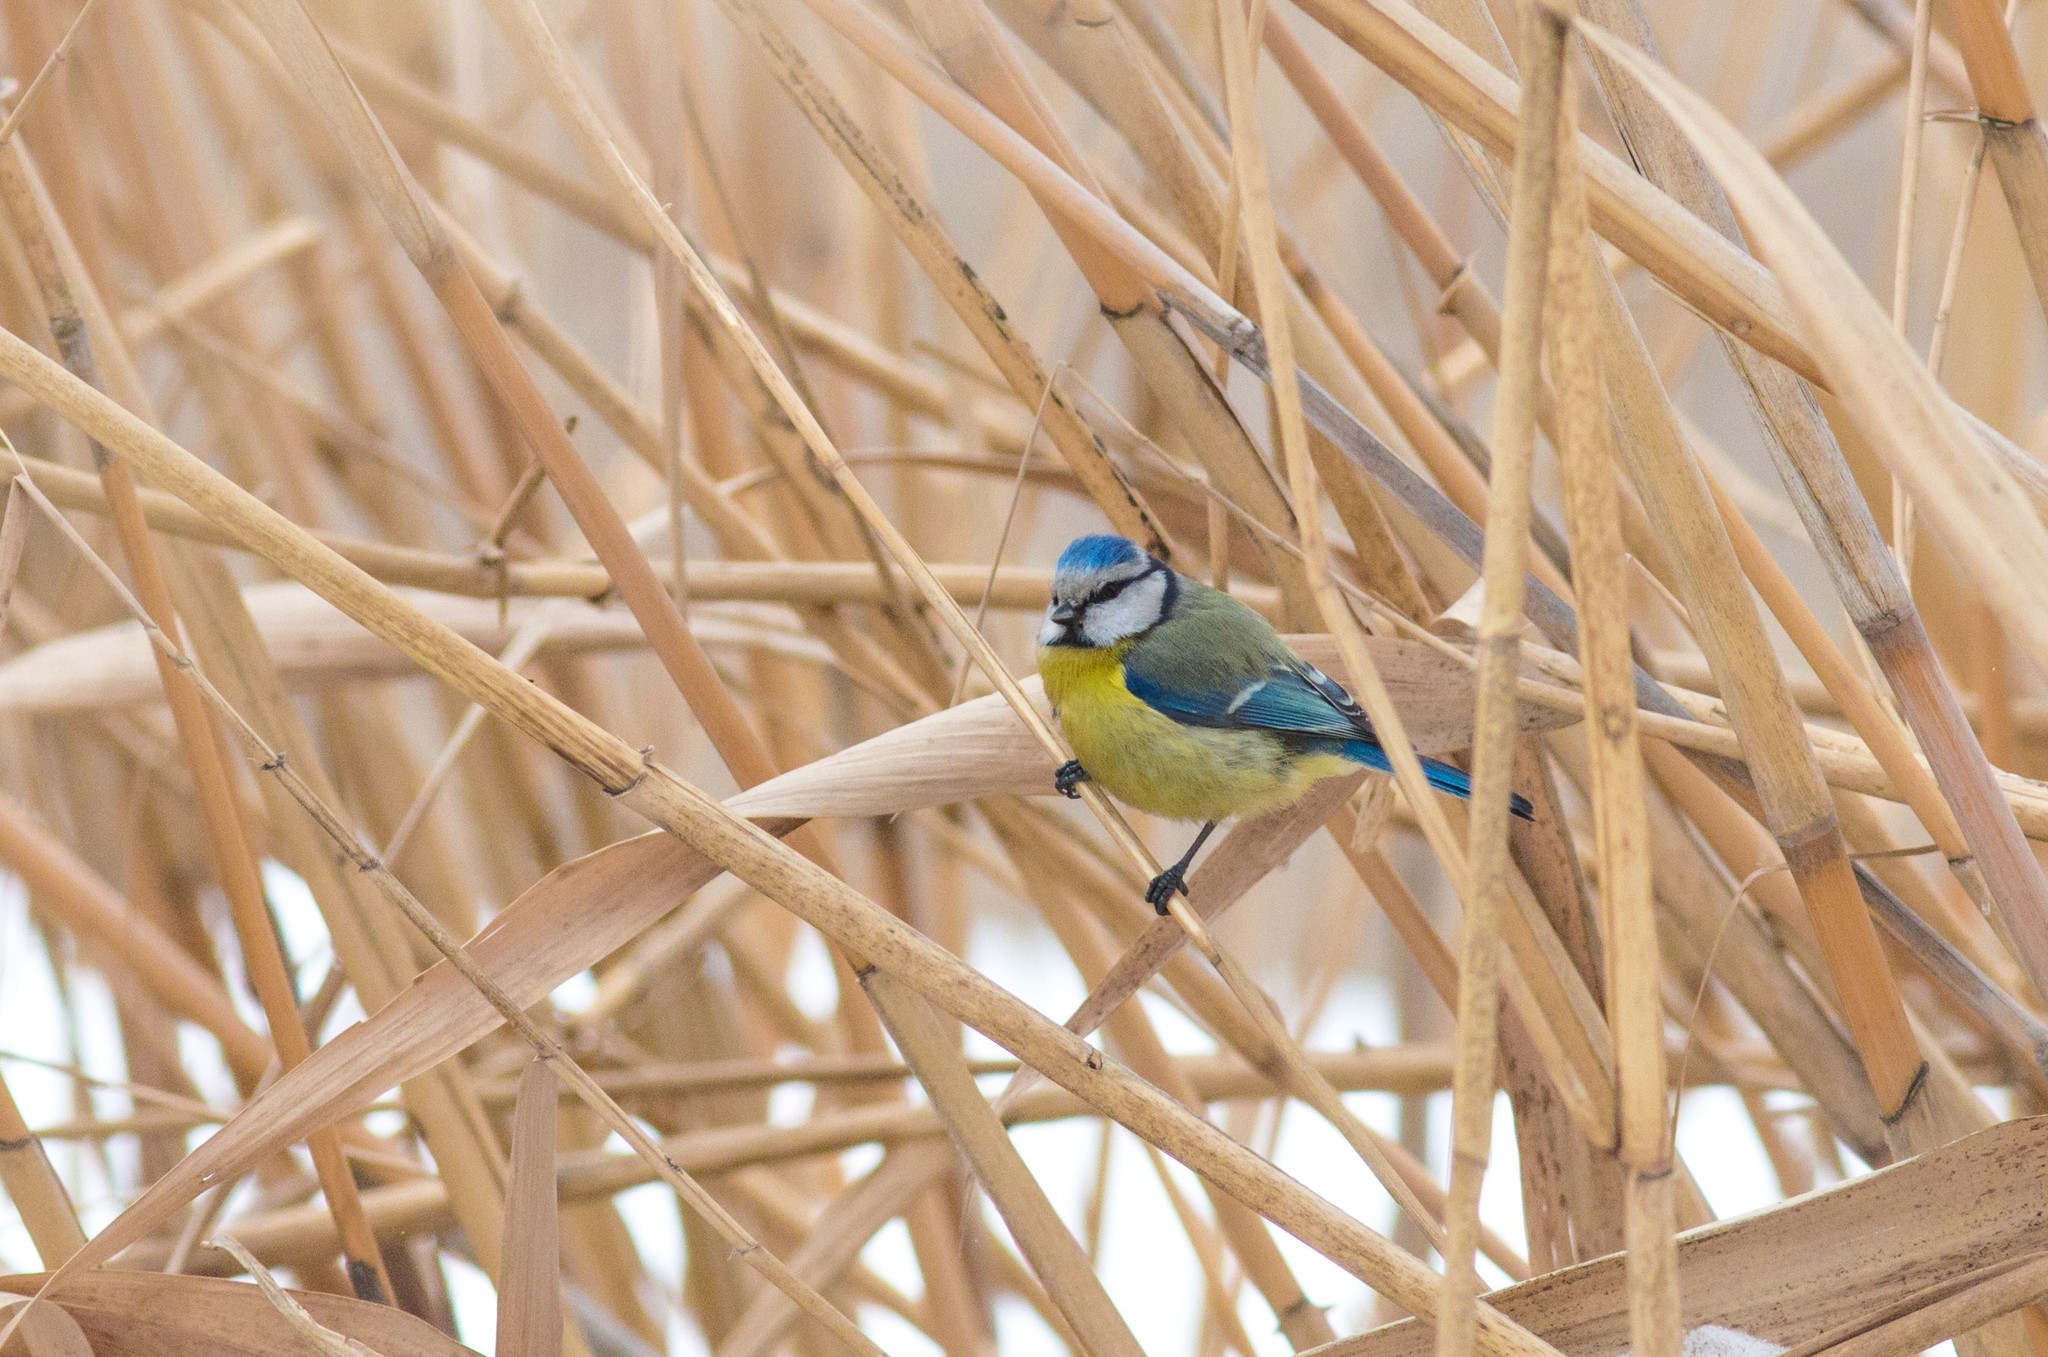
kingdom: Animalia
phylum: Chordata
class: Aves
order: Passeriformes
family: Paridae
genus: Cyanistes
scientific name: Cyanistes caeruleus
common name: Eurasian blue tit
